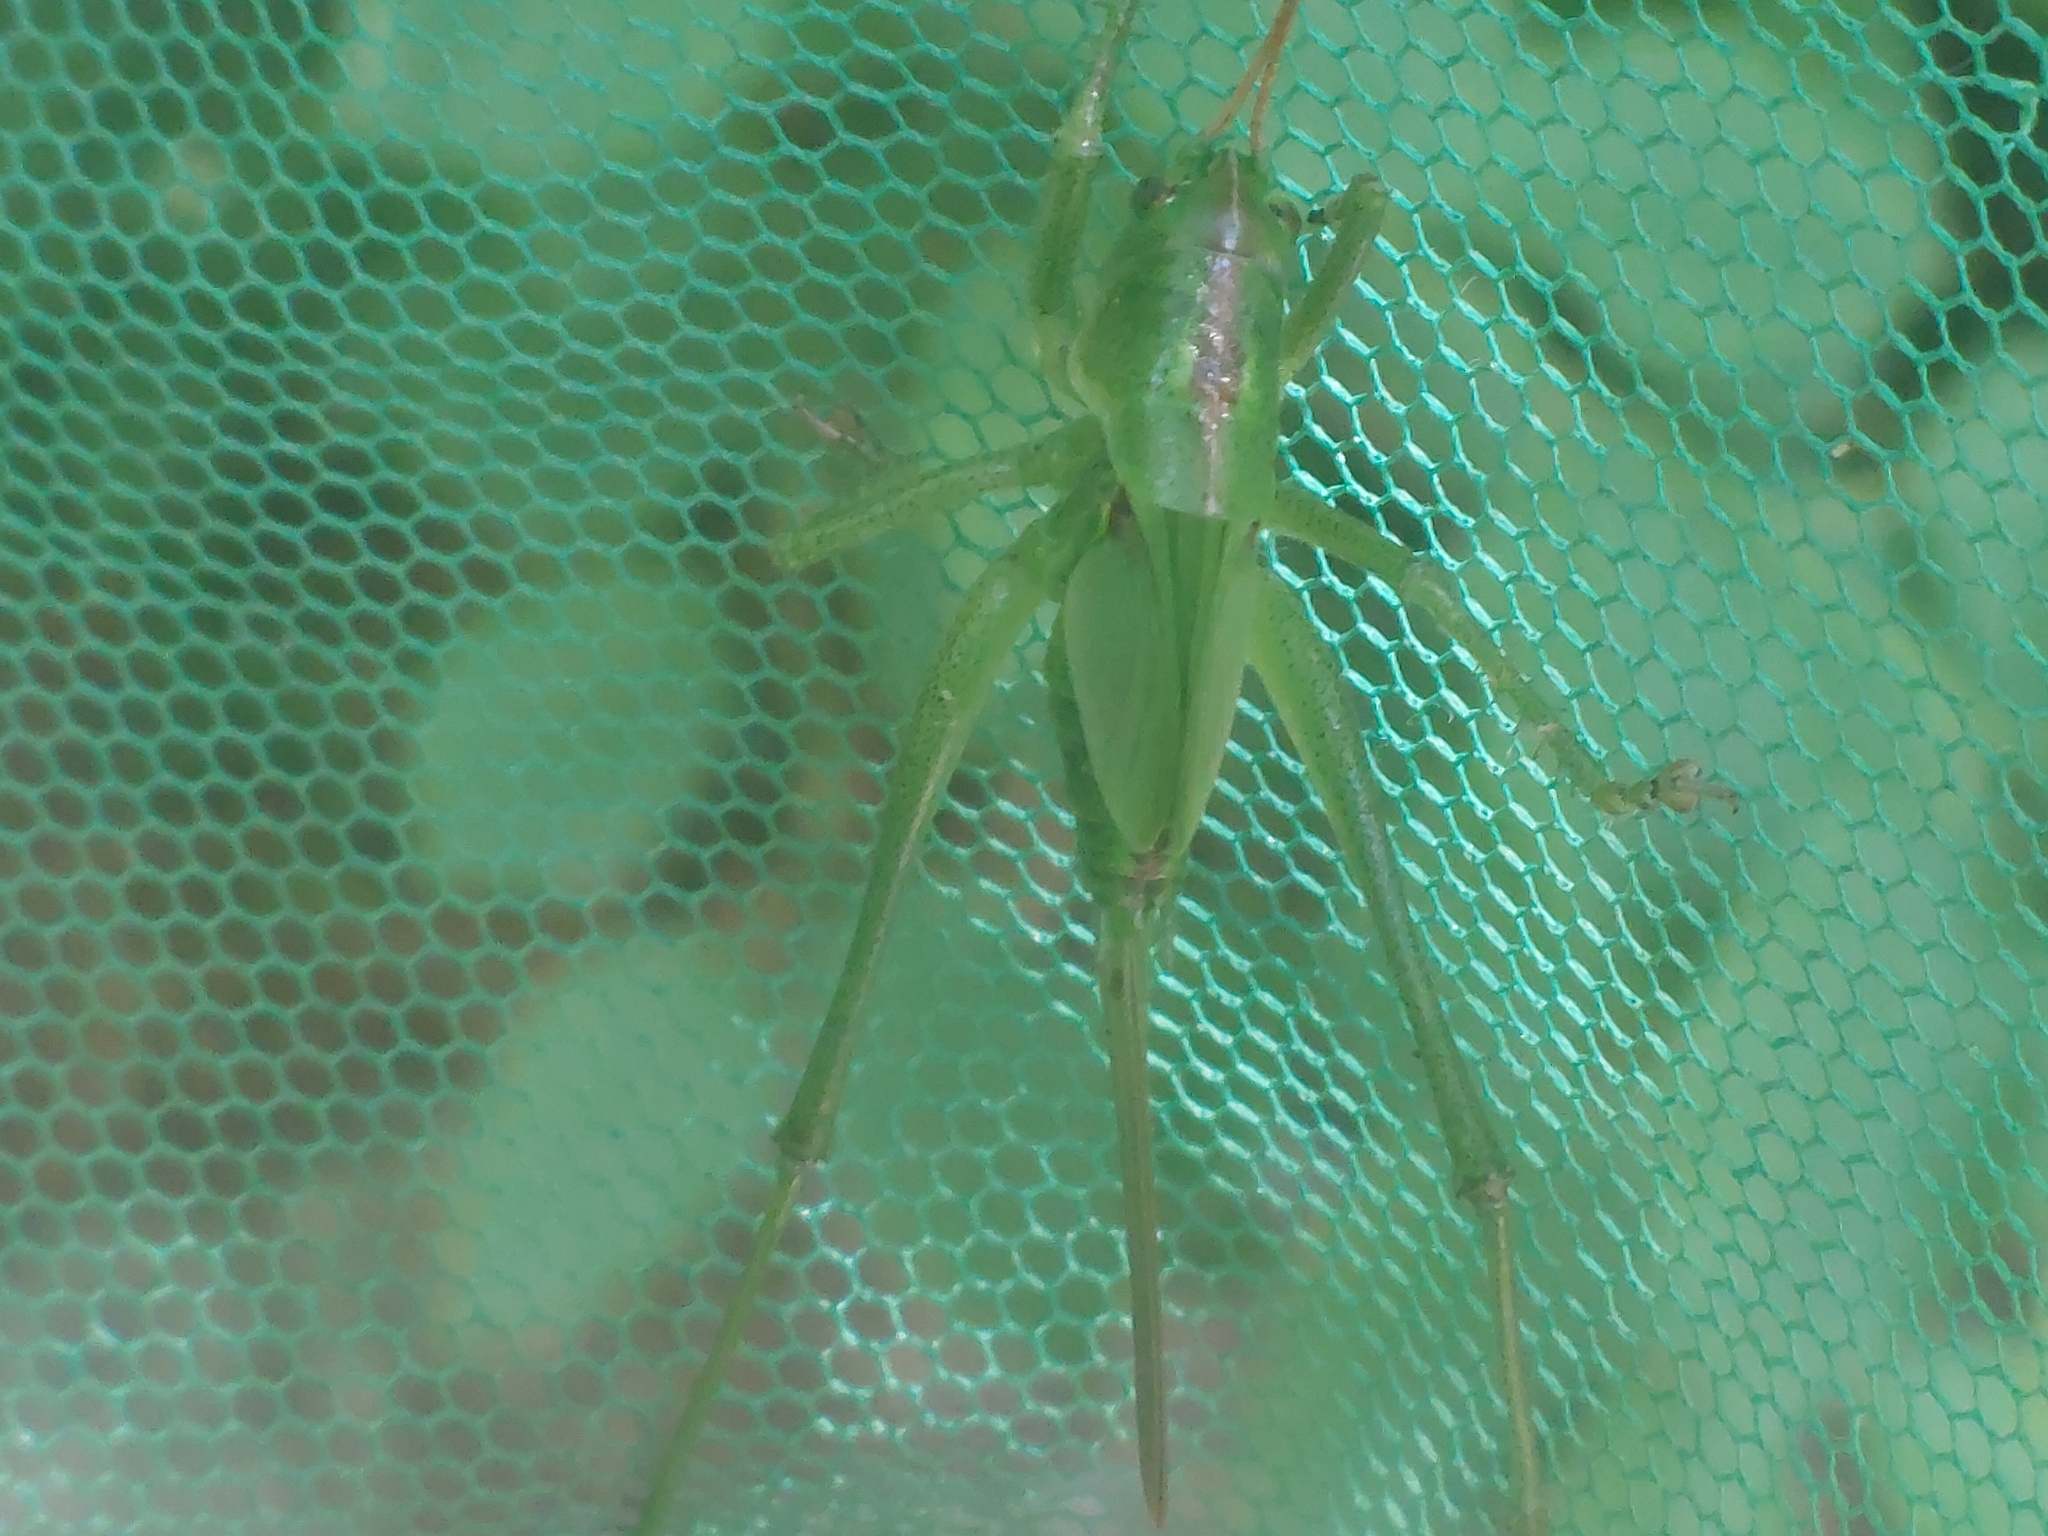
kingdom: Animalia
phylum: Arthropoda
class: Insecta
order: Orthoptera
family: Tettigoniidae
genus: Tettigonia
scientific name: Tettigonia viridissima
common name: Great green bush-cricket
